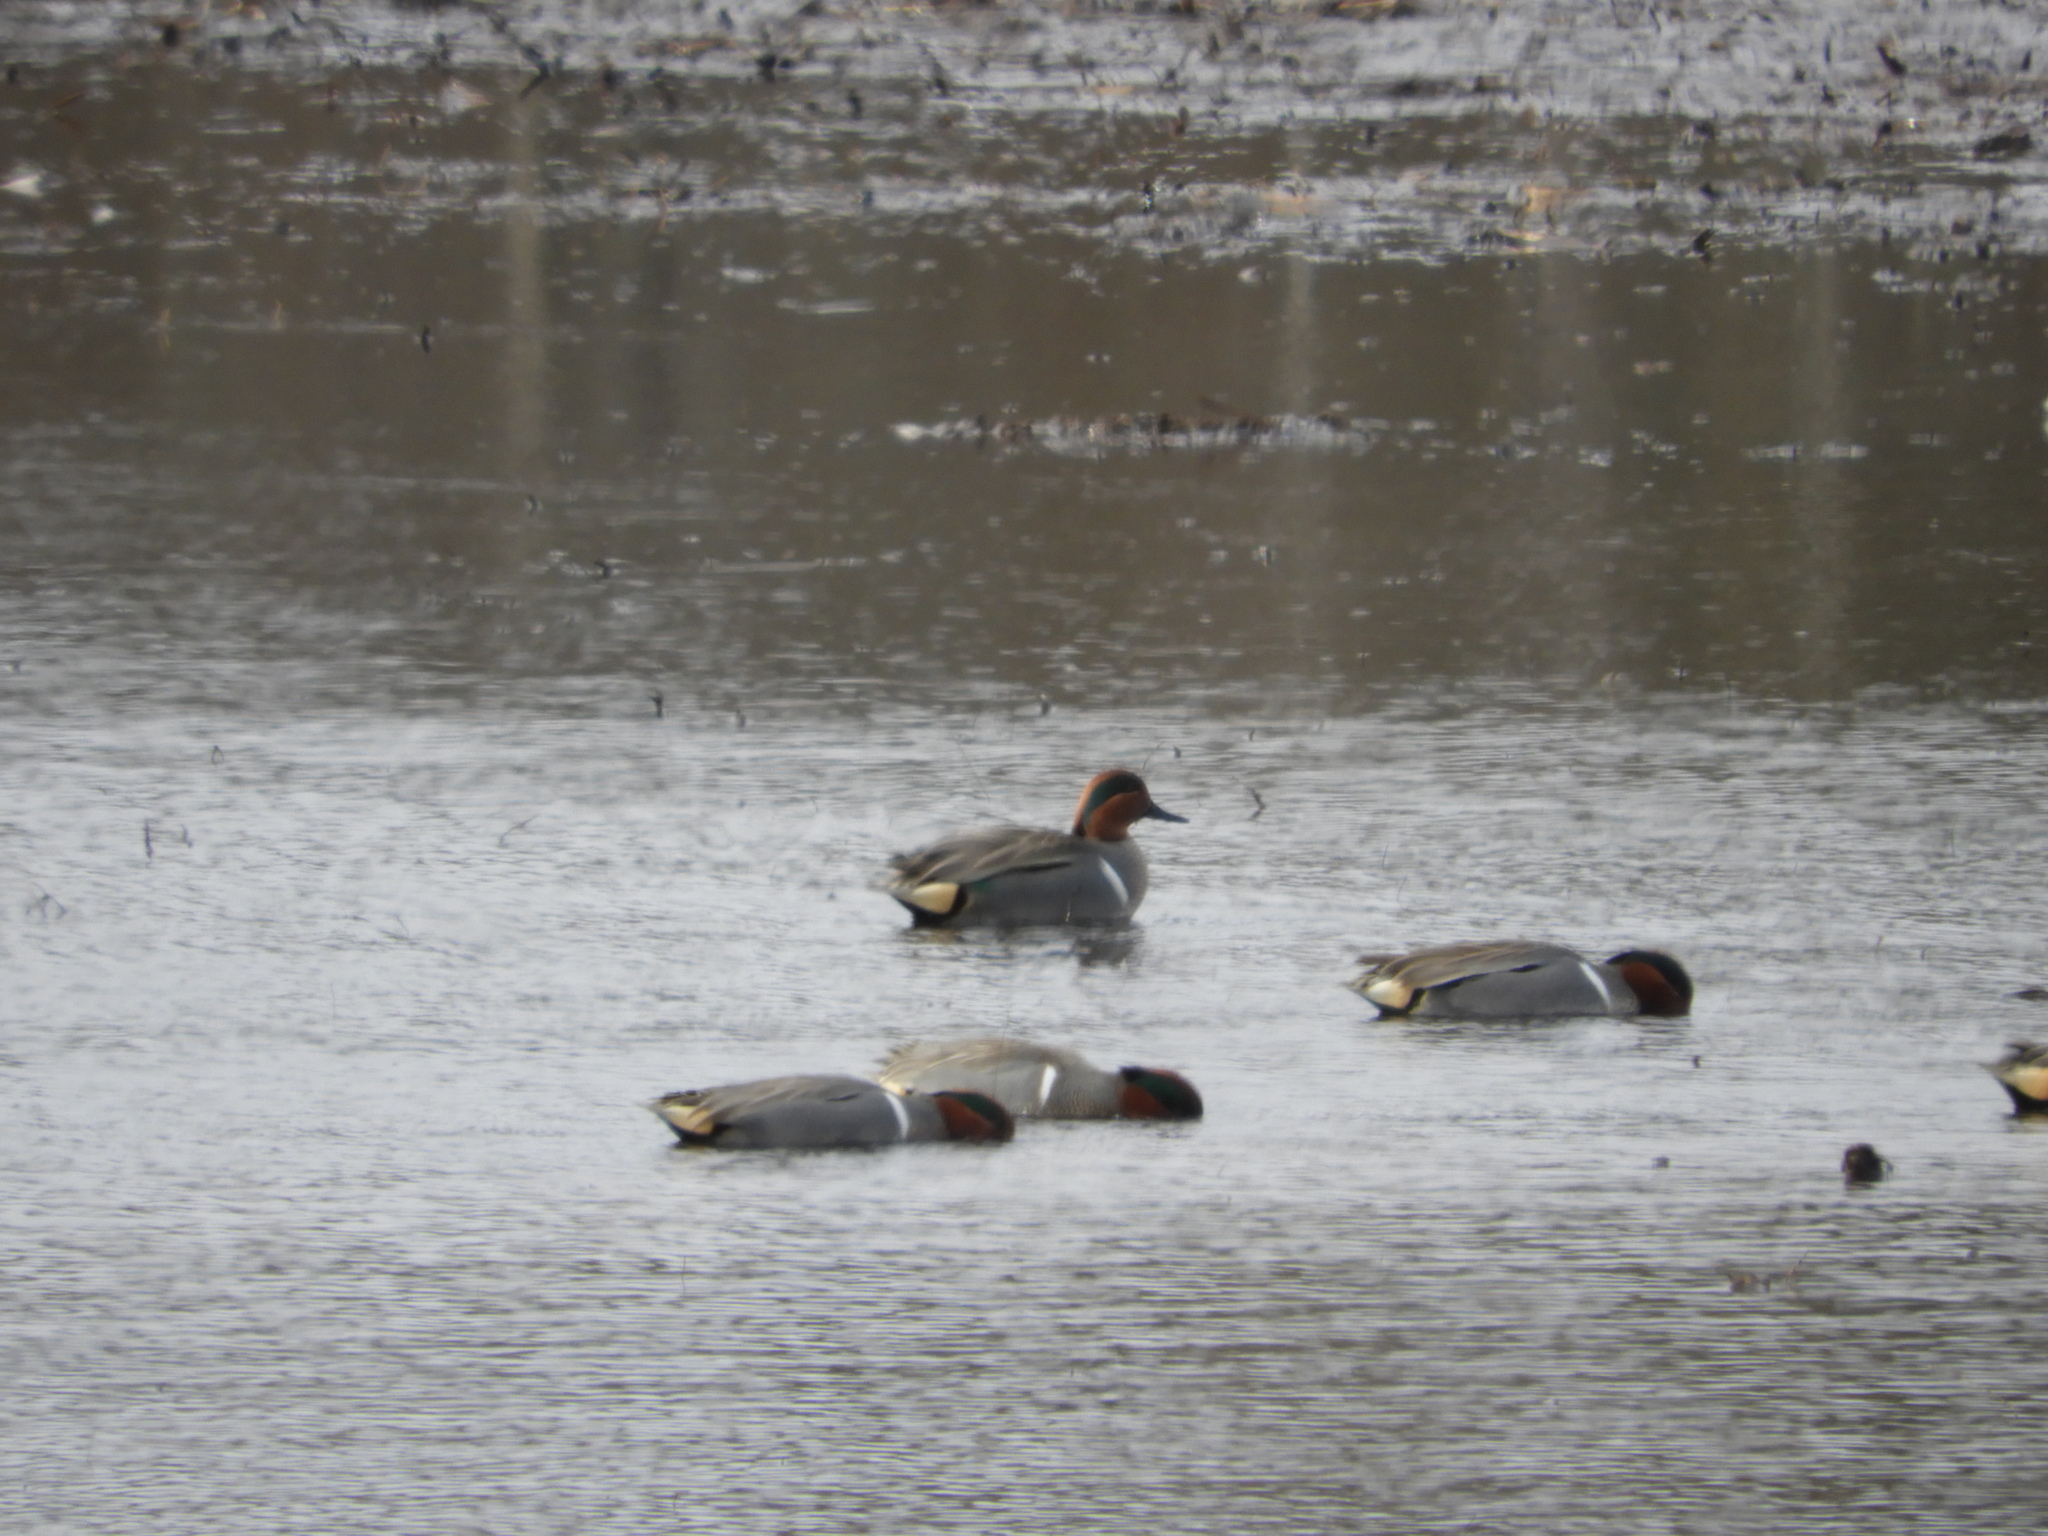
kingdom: Animalia
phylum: Chordata
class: Aves
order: Anseriformes
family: Anatidae
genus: Anas
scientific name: Anas crecca
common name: Eurasian teal
